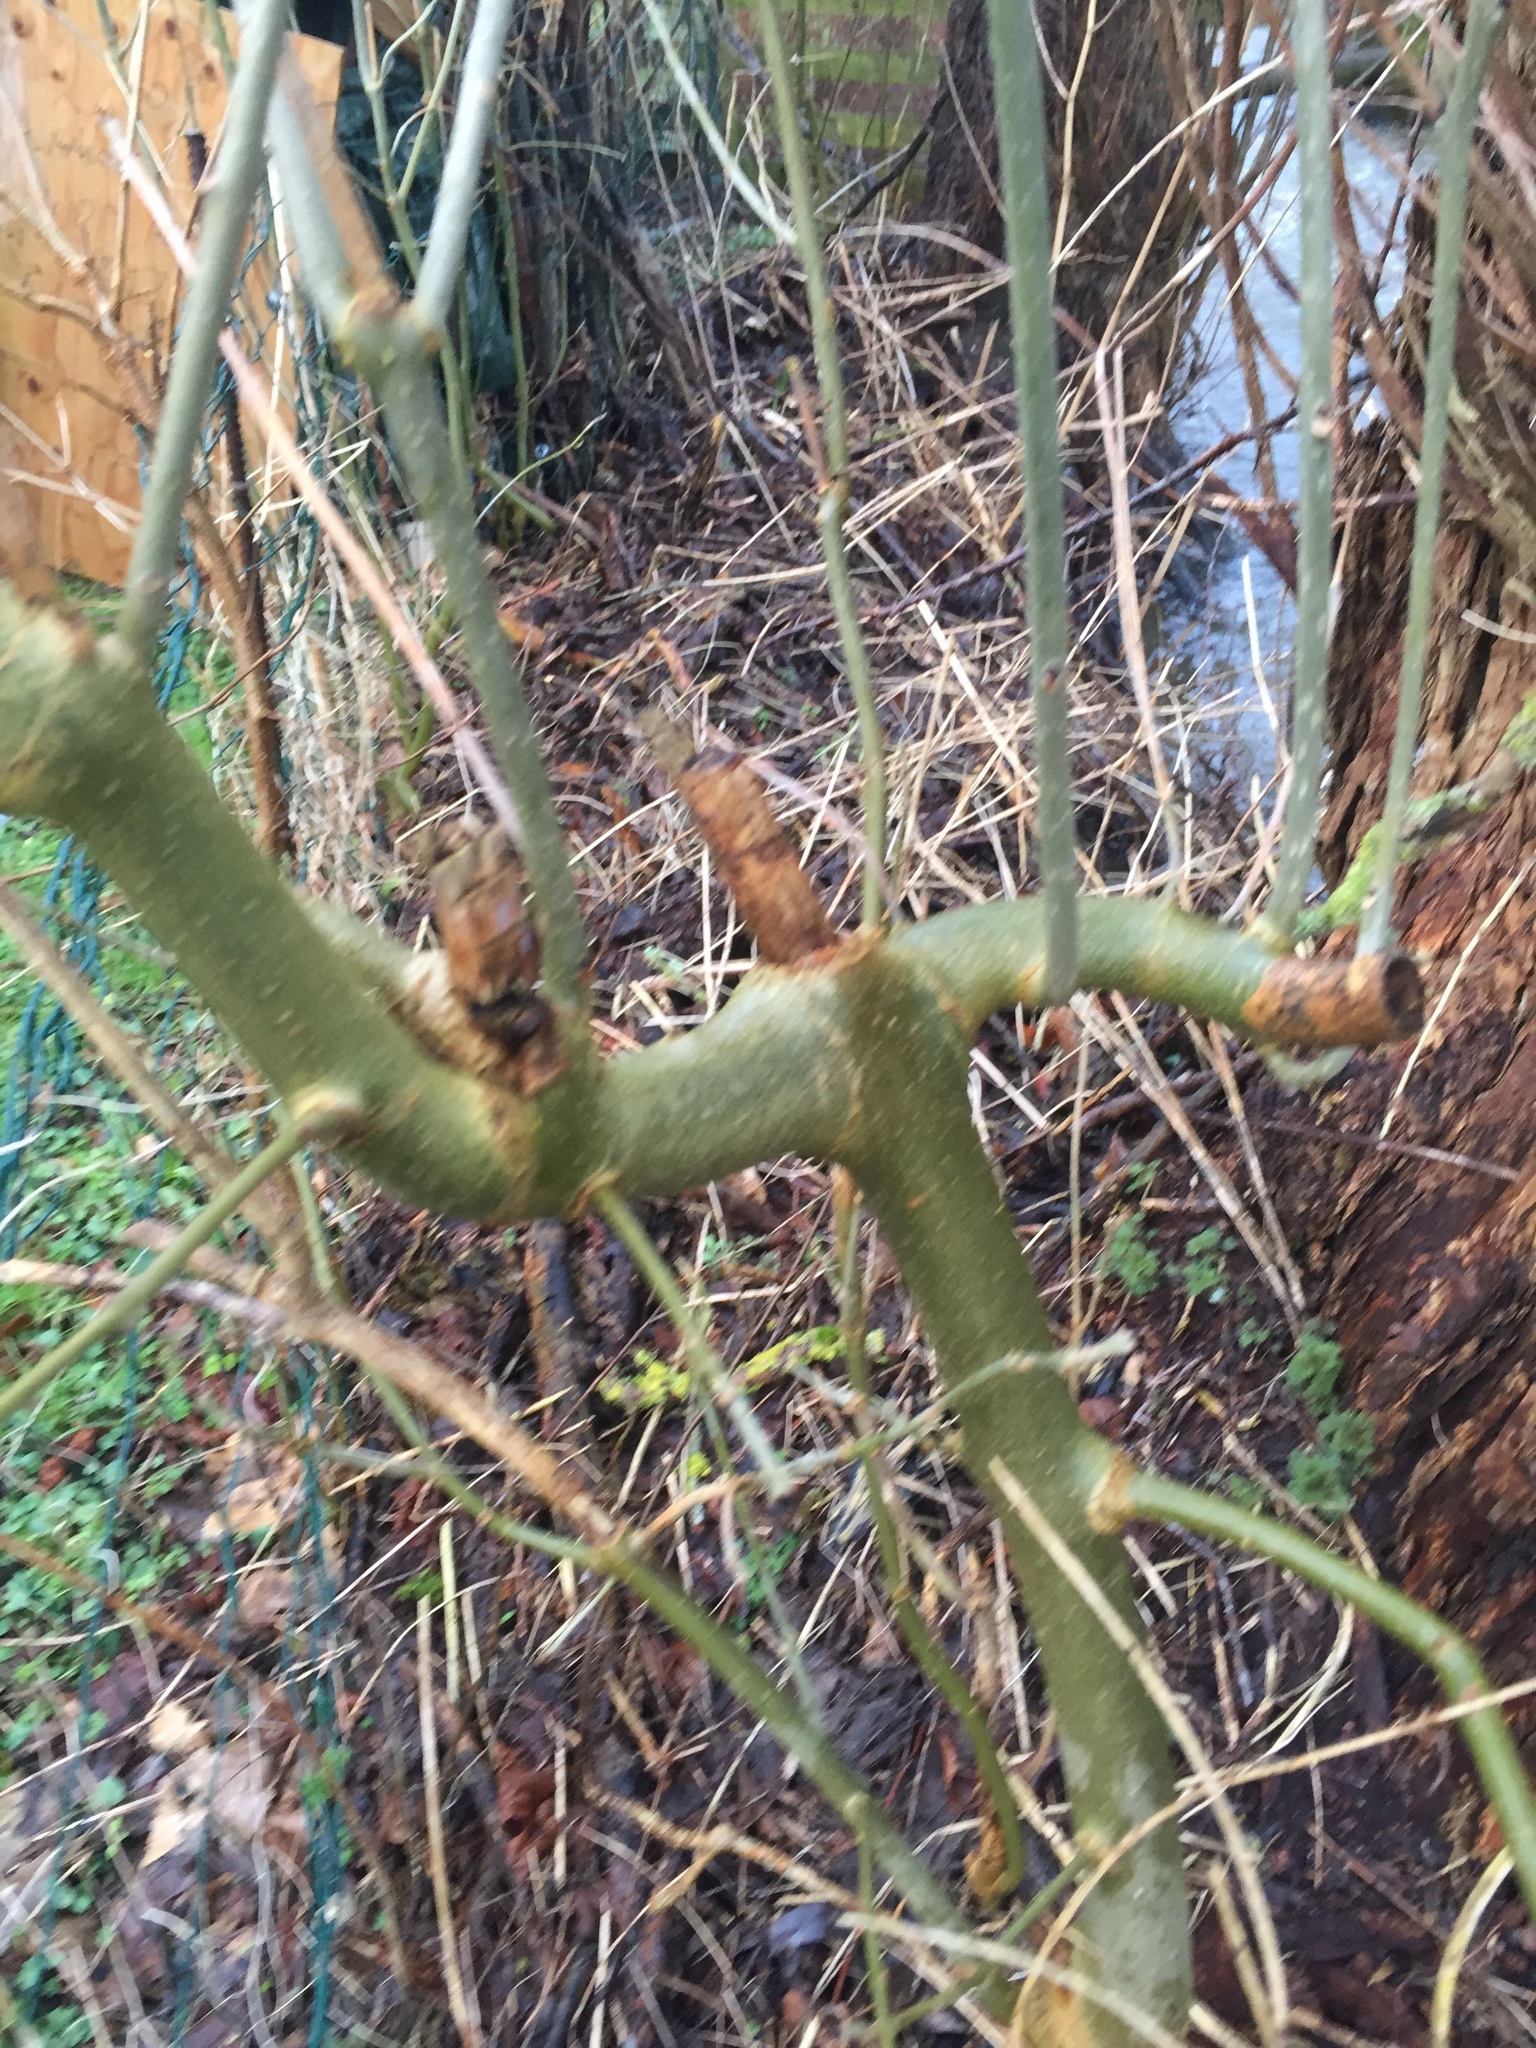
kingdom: Plantae
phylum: Tracheophyta
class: Magnoliopsida
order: Lamiales
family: Oleaceae
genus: Fraxinus
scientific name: Fraxinus excelsior
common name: European ash
